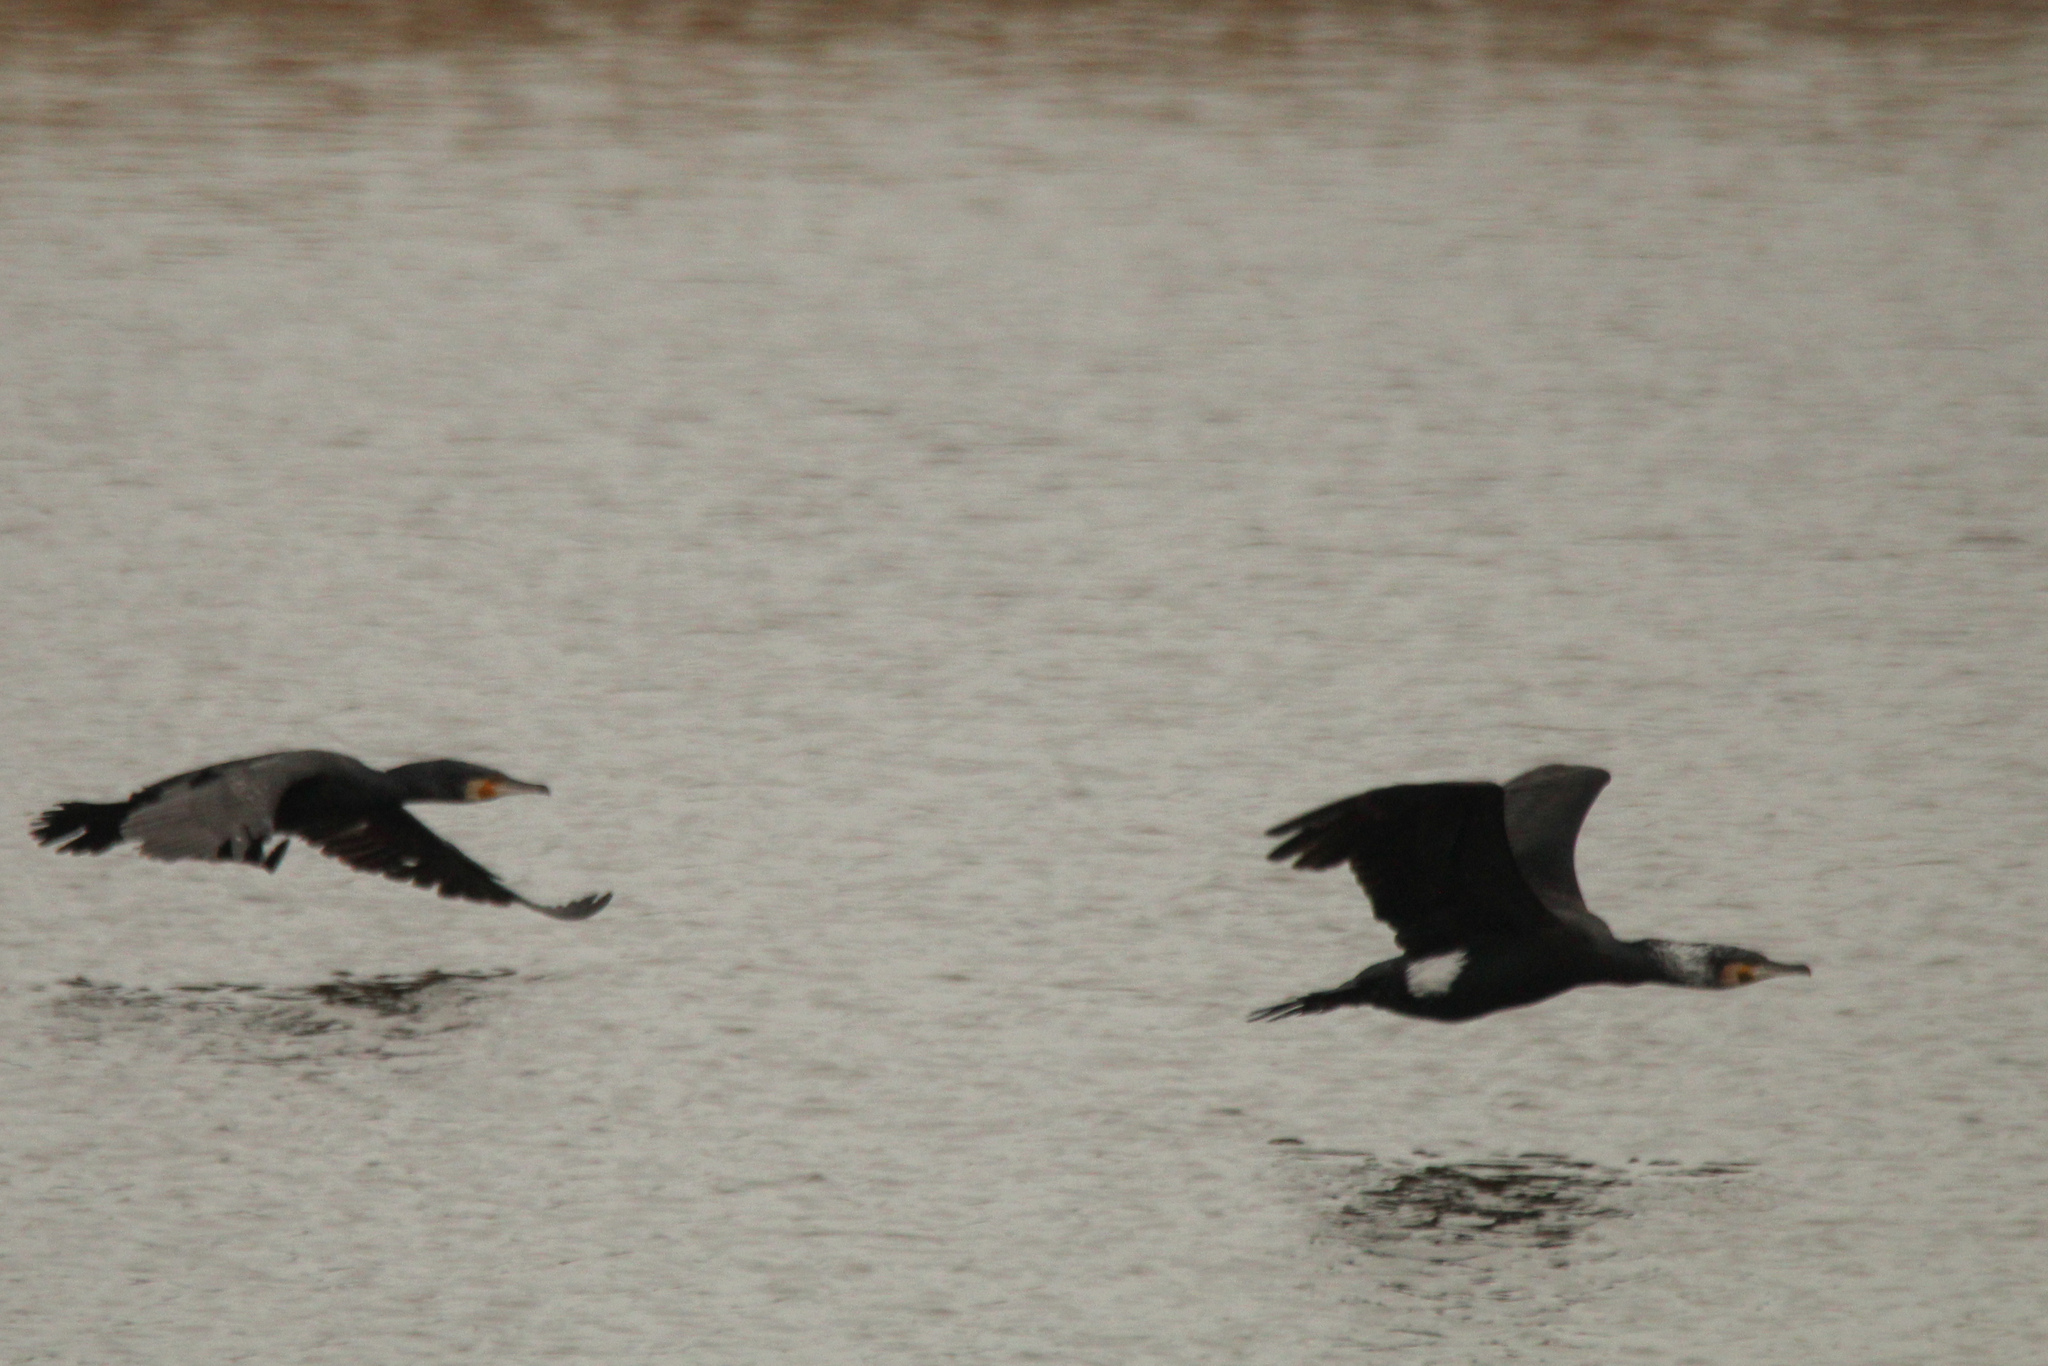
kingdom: Animalia
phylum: Chordata
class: Aves
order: Suliformes
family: Phalacrocoracidae
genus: Phalacrocorax
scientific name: Phalacrocorax carbo
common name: Great cormorant
